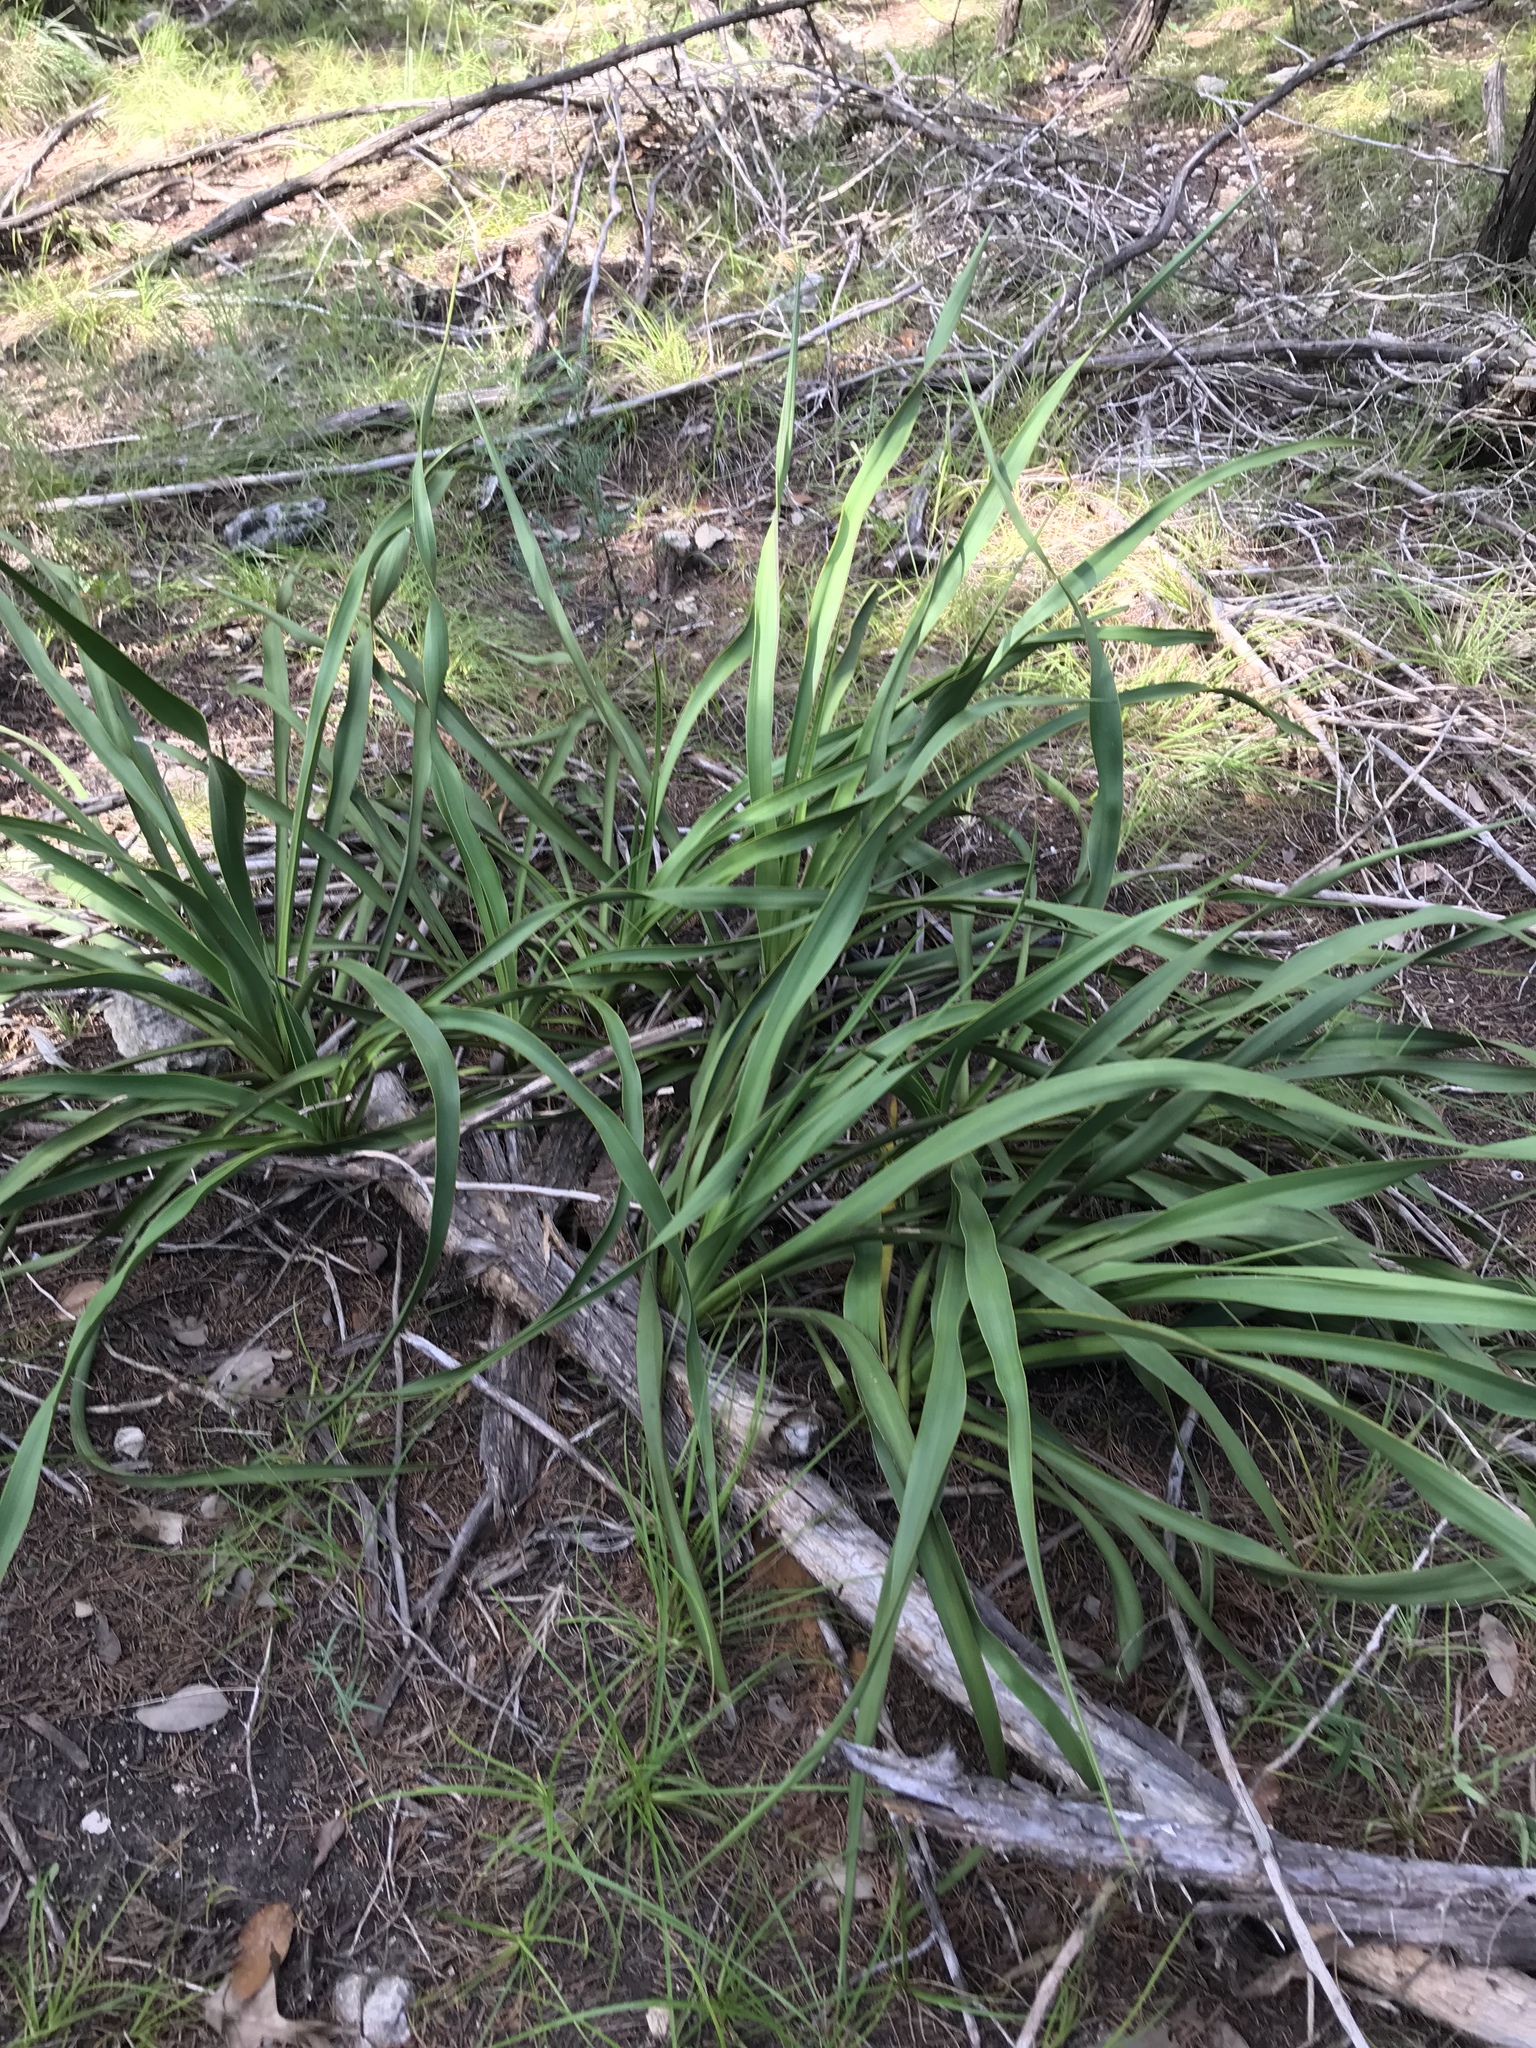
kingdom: Plantae
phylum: Tracheophyta
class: Liliopsida
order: Asparagales
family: Asparagaceae
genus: Yucca
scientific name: Yucca rupicola
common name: Twisted-leaf spanish-dagger
